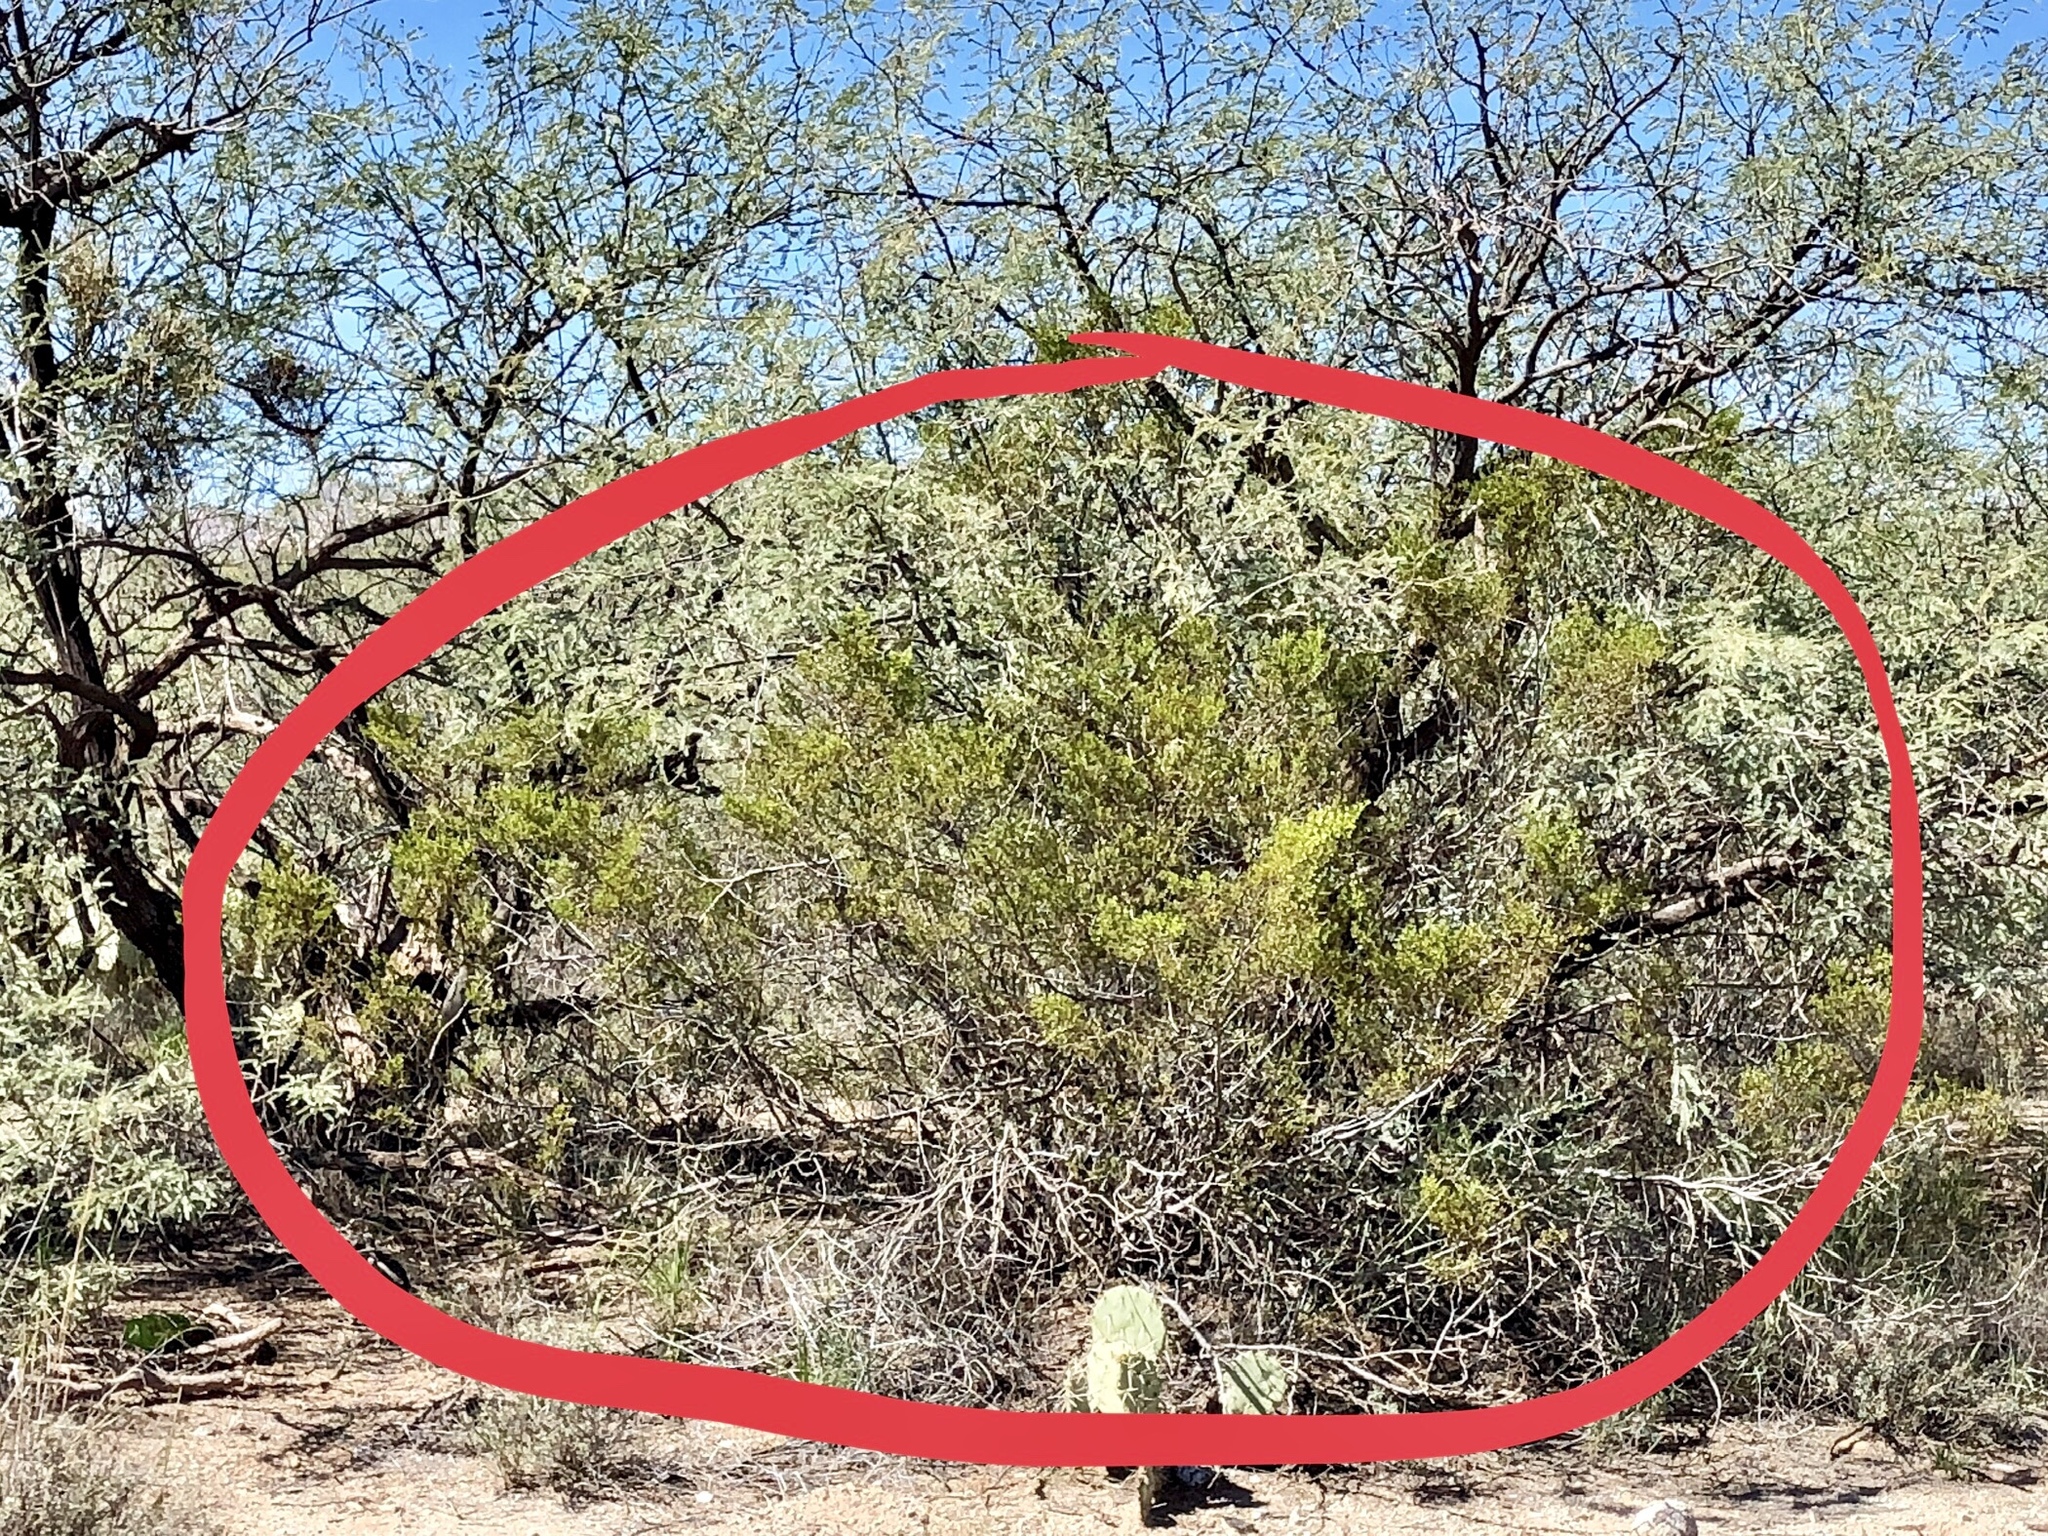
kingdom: Plantae
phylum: Tracheophyta
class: Magnoliopsida
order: Zygophyllales
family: Zygophyllaceae
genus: Larrea
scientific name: Larrea tridentata
